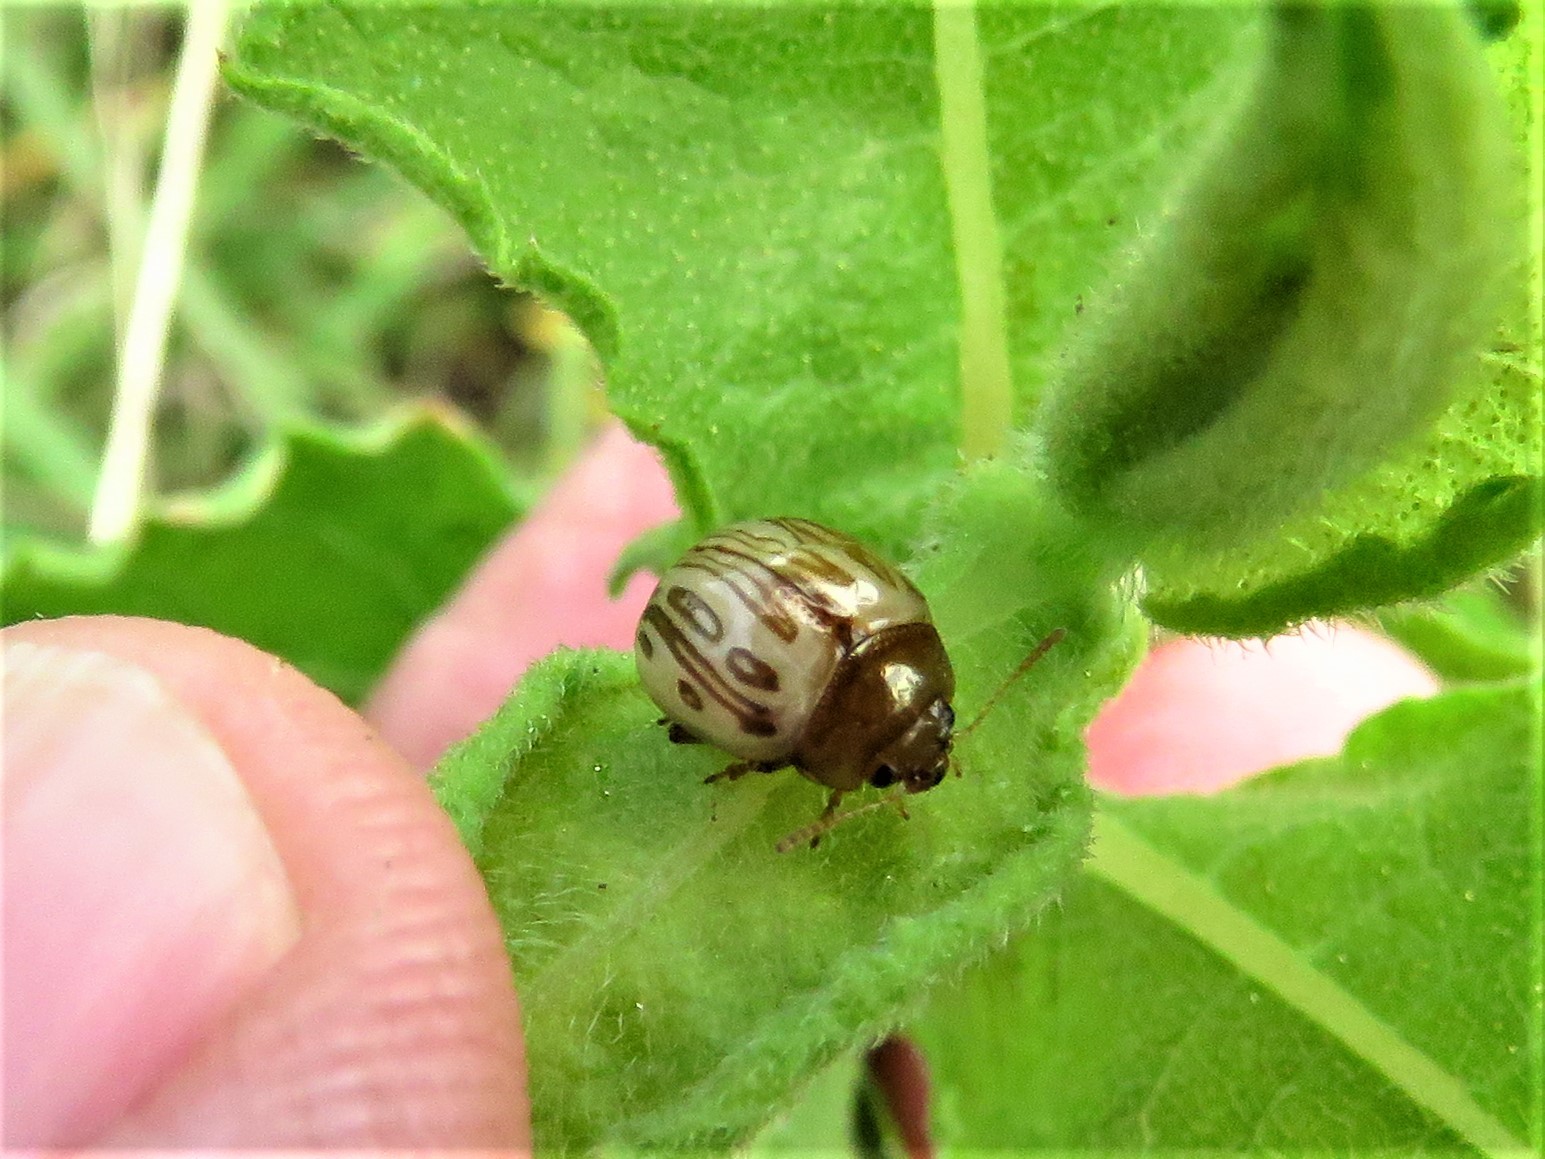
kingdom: Animalia
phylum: Arthropoda
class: Insecta
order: Coleoptera
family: Chrysomelidae
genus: Calligrapha
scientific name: Calligrapha
